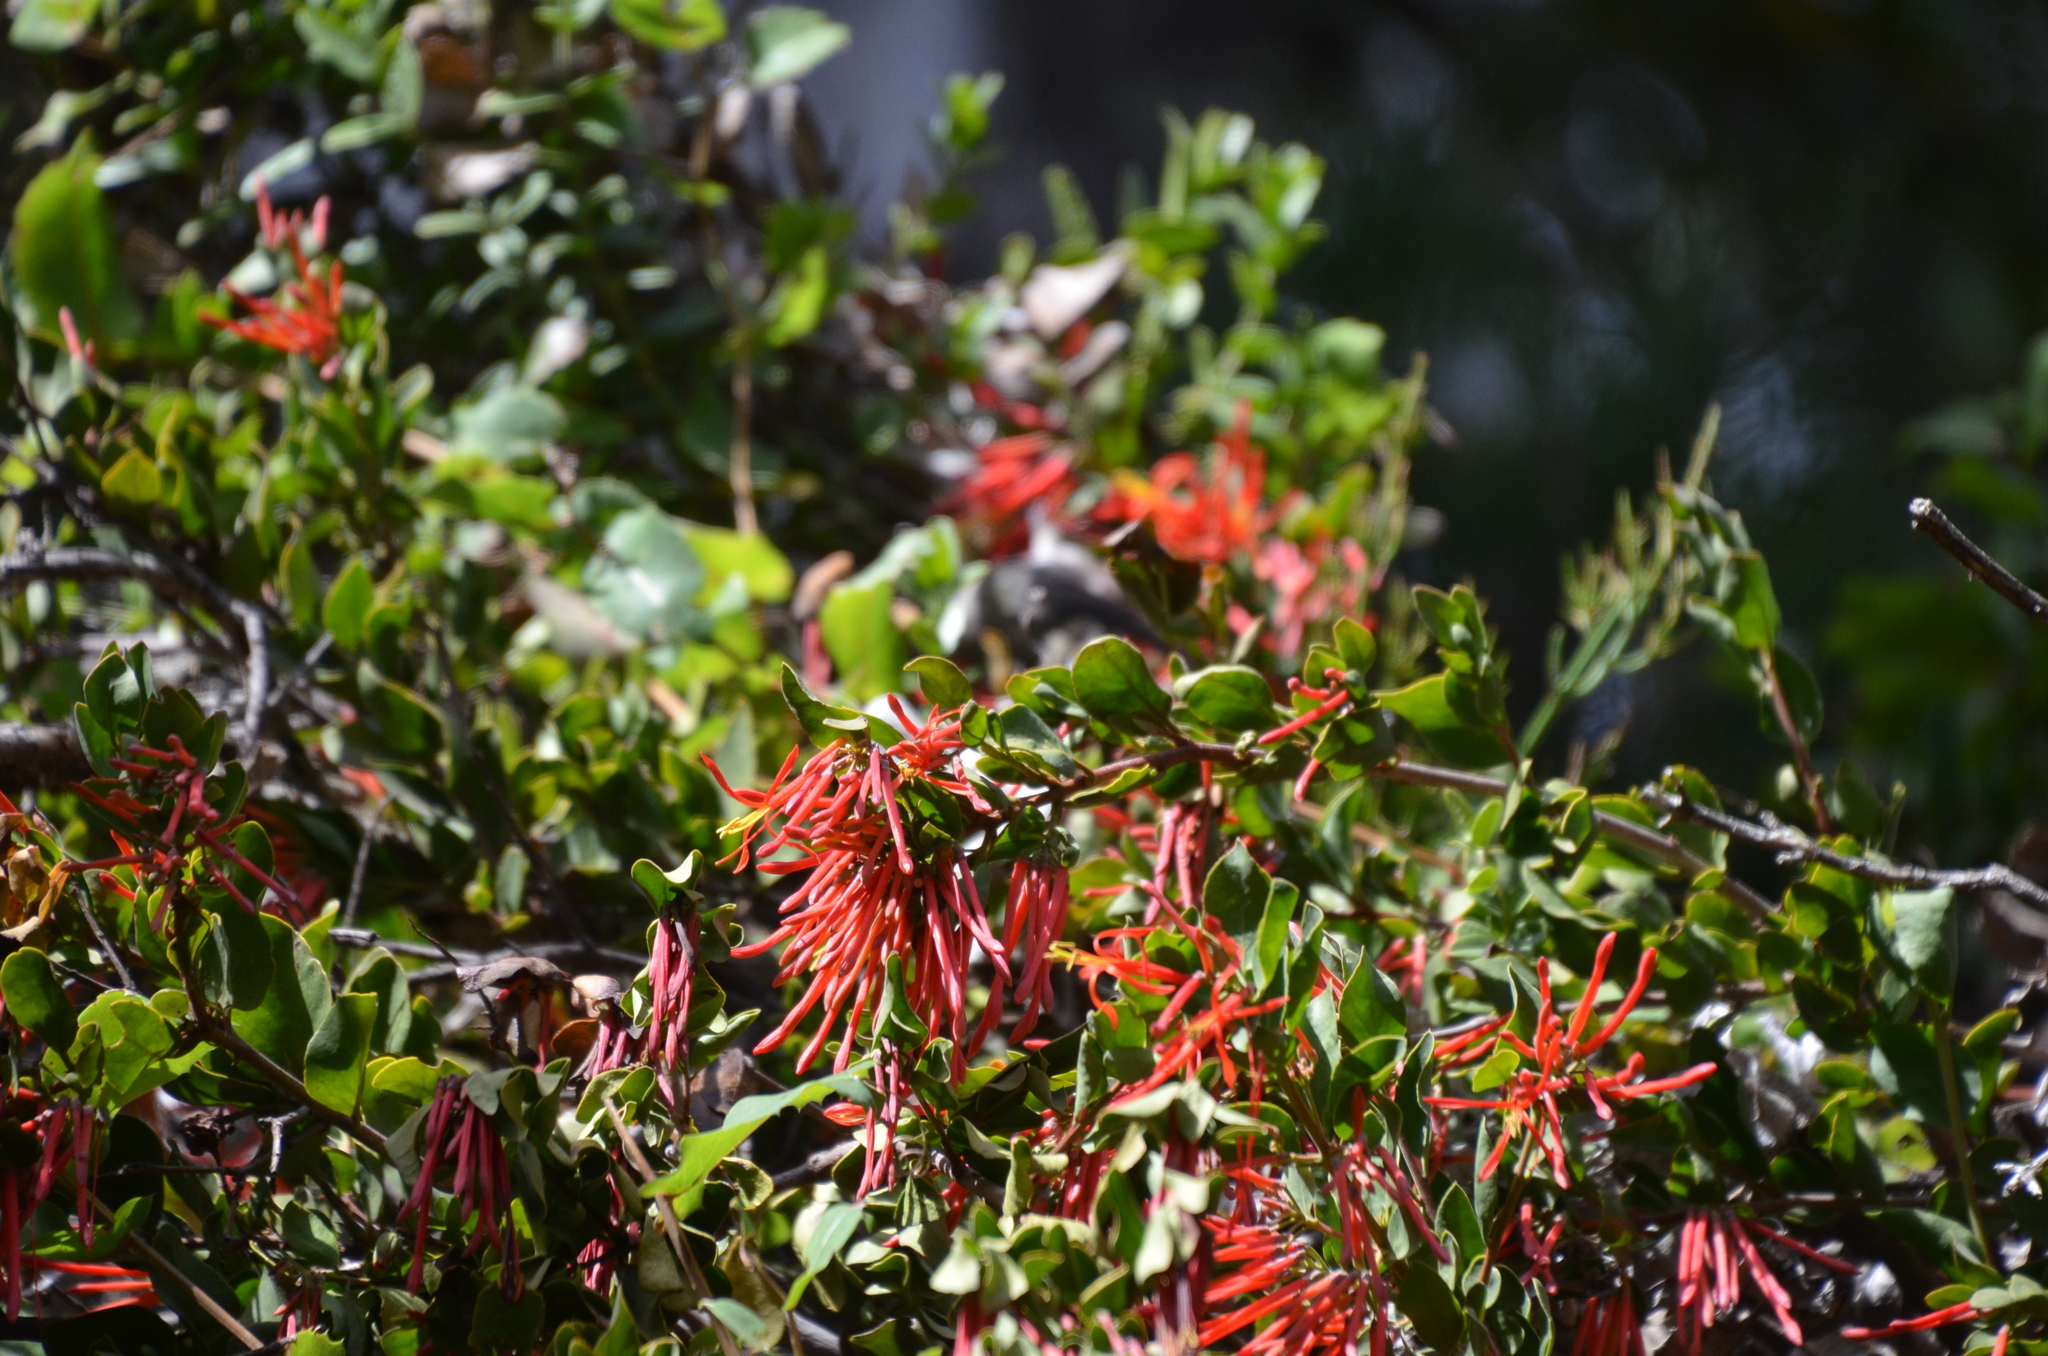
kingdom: Plantae
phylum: Tracheophyta
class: Magnoliopsida
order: Santalales
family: Loranthaceae
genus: Tristerix
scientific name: Tristerix corymbosus
